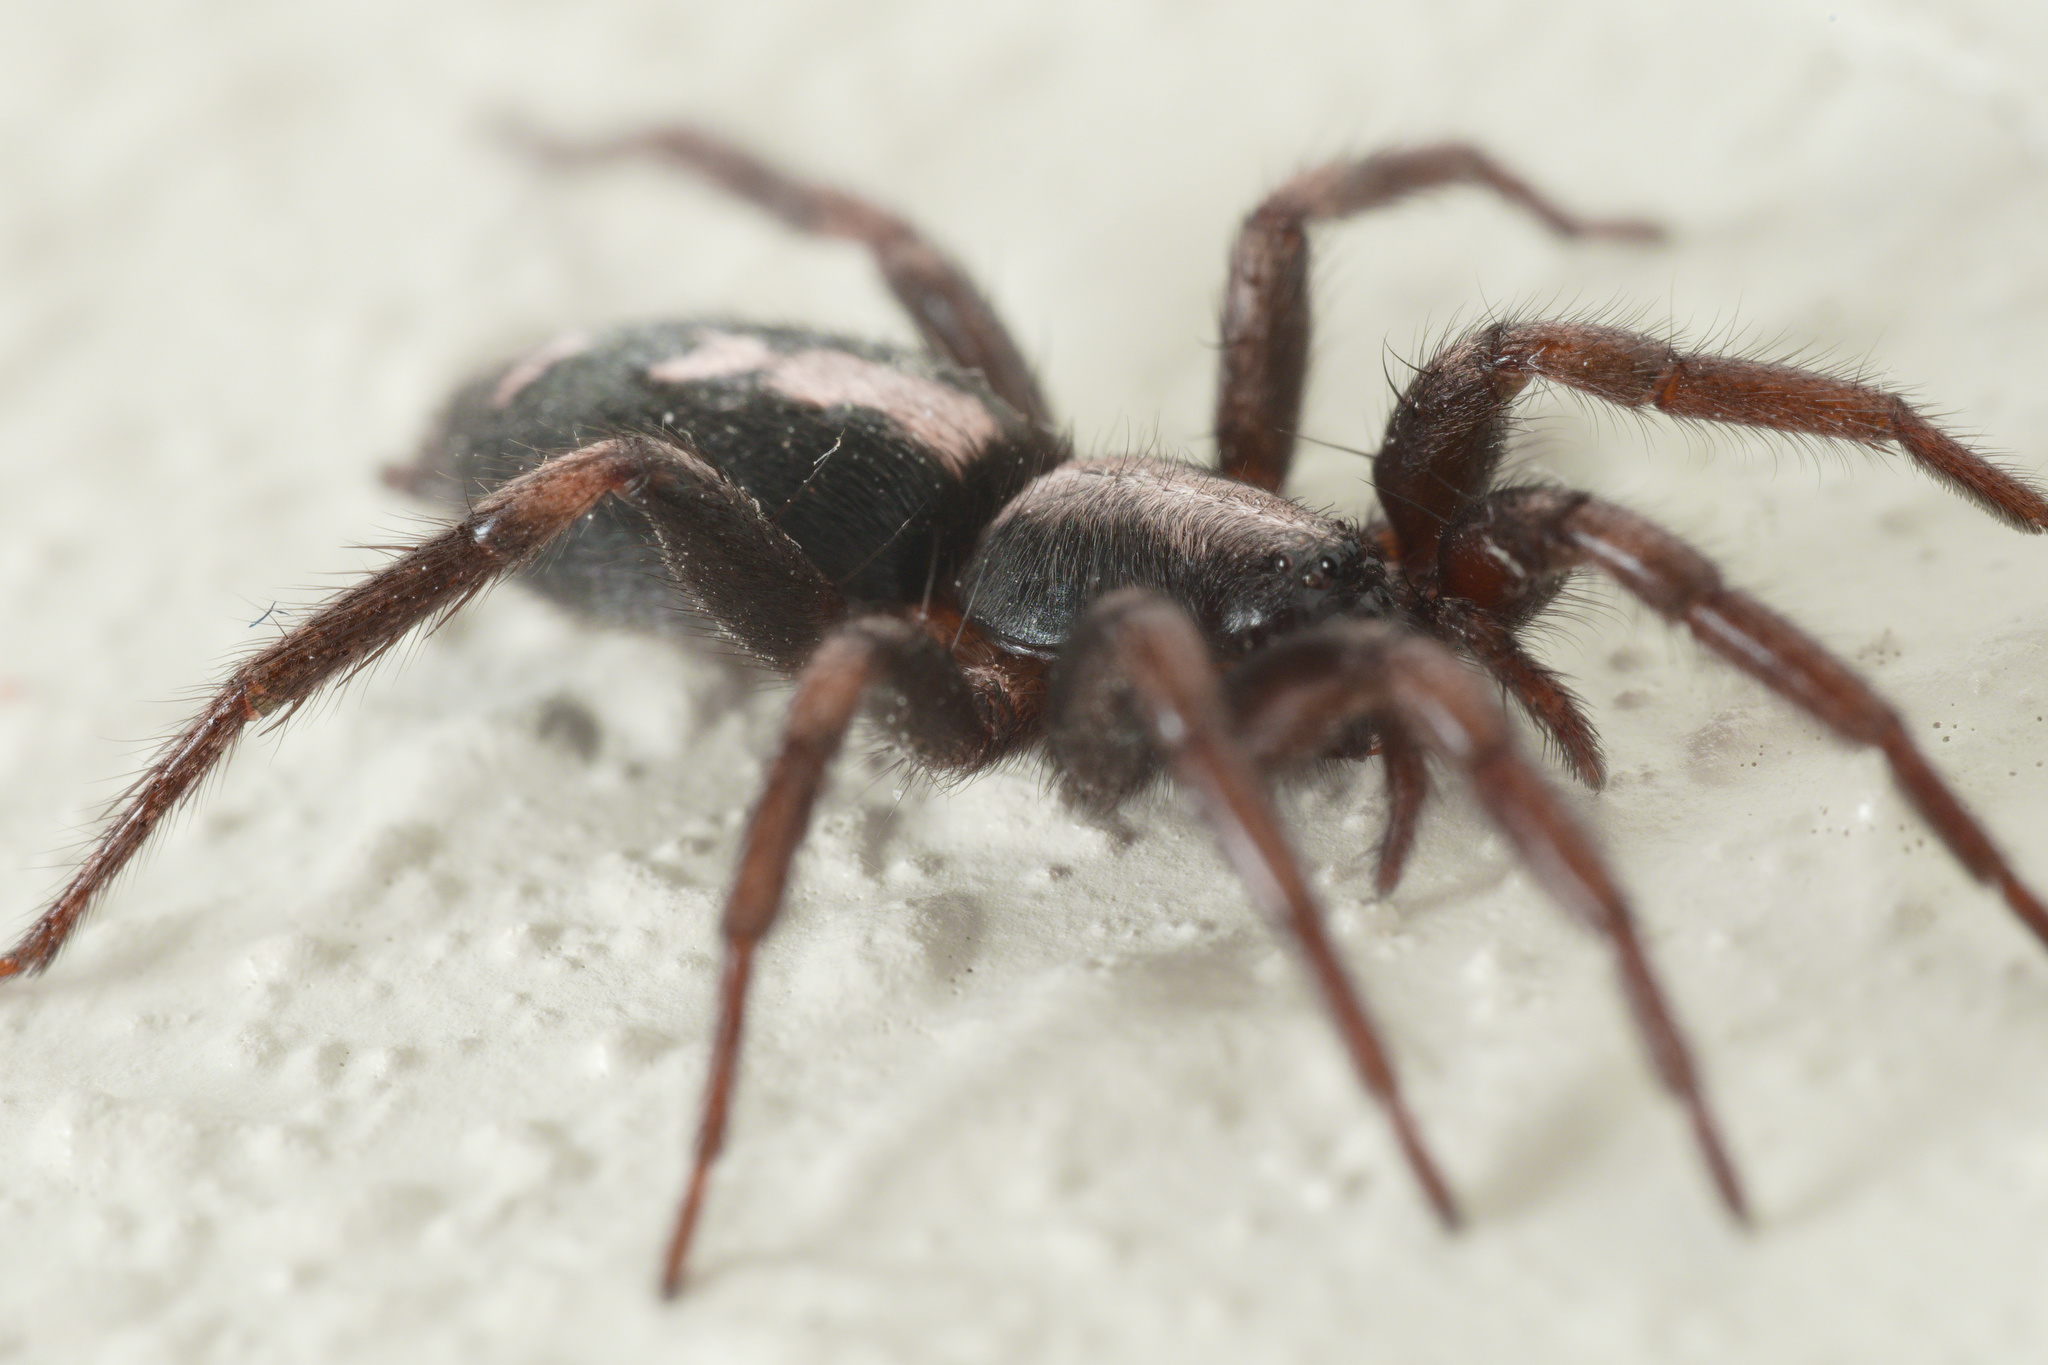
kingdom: Animalia
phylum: Arthropoda
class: Arachnida
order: Araneae
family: Gnaphosidae
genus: Herpyllus
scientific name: Herpyllus ecclesiasticus
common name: Eastern parson spider
